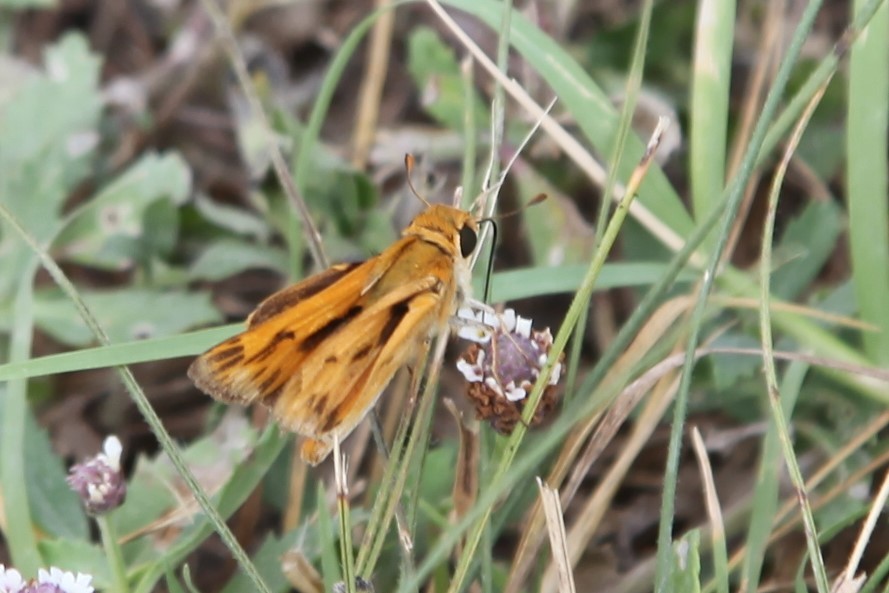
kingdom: Animalia
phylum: Arthropoda
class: Insecta
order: Lepidoptera
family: Hesperiidae
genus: Hylephila
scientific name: Hylephila phyleus
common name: Fiery skipper
